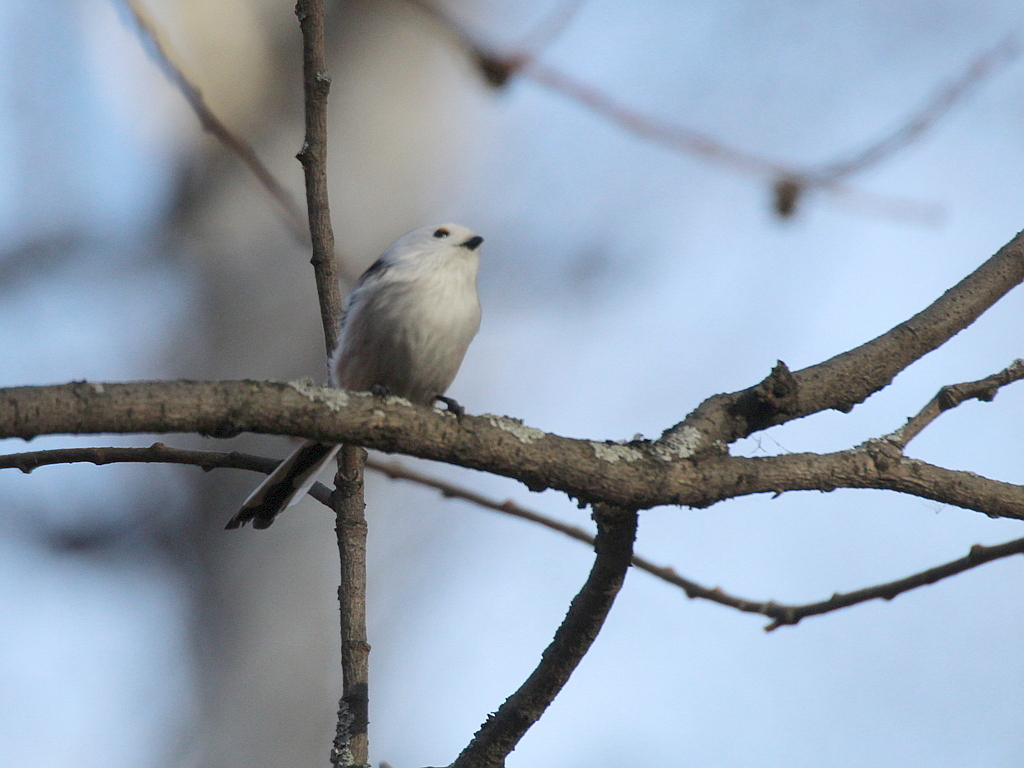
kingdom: Animalia
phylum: Chordata
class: Aves
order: Passeriformes
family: Aegithalidae
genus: Aegithalos
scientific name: Aegithalos caudatus
